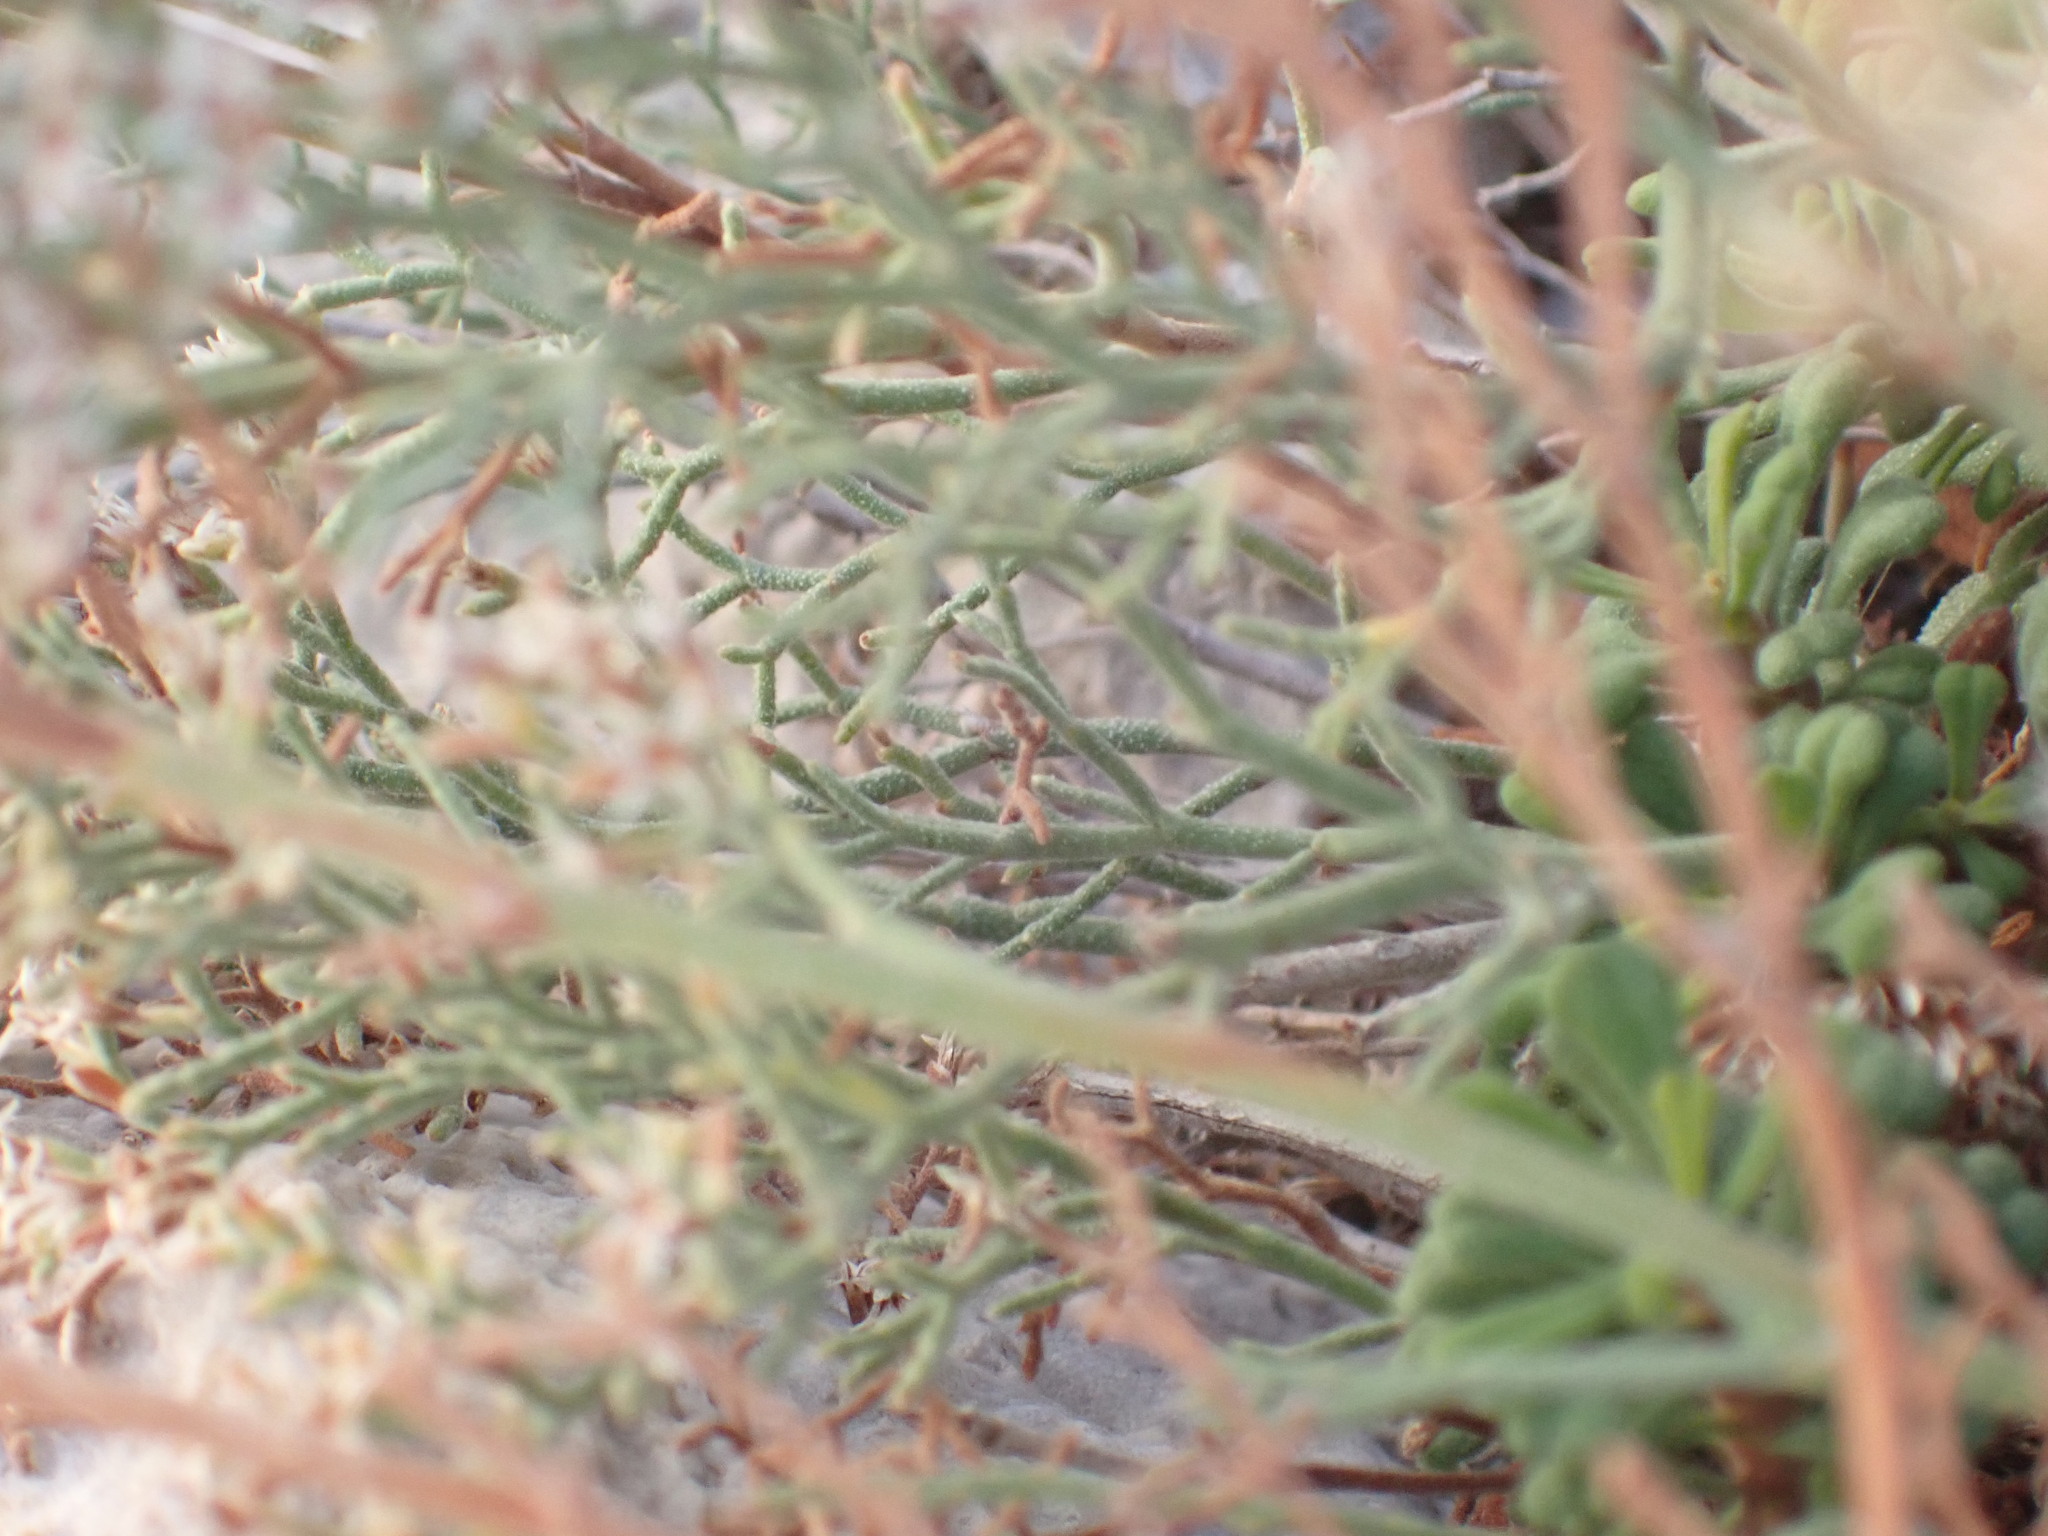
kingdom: Plantae
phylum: Tracheophyta
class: Magnoliopsida
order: Caryophyllales
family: Plumbaginaceae
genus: Limonium
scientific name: Limonium cordatum
